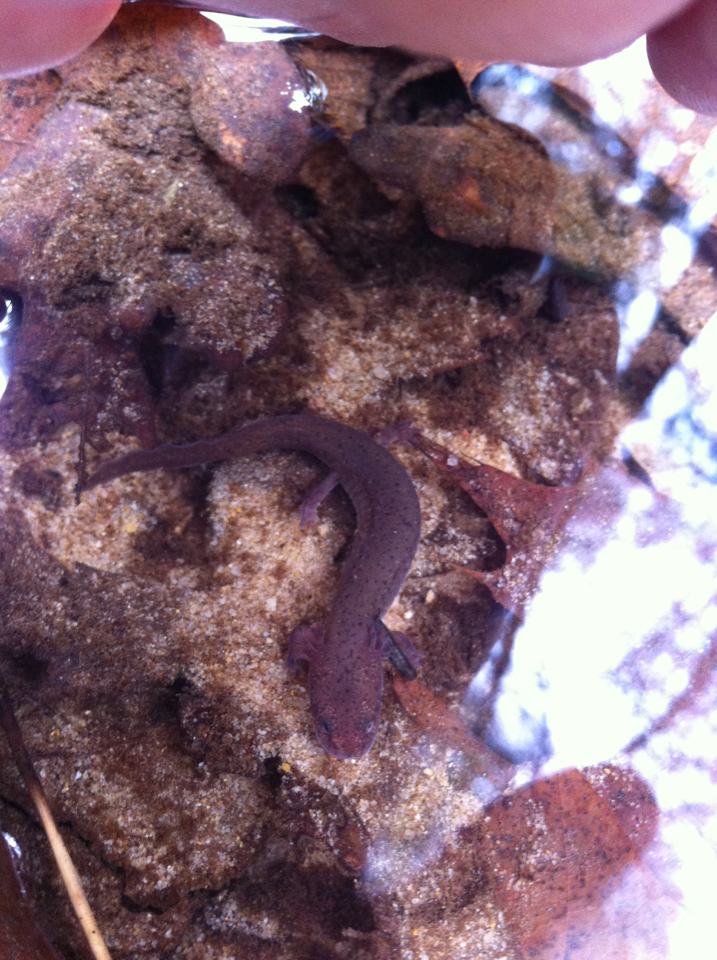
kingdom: Animalia
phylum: Chordata
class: Amphibia
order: Caudata
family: Plethodontidae
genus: Pseudotriton
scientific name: Pseudotriton ruber
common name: Red salamander
